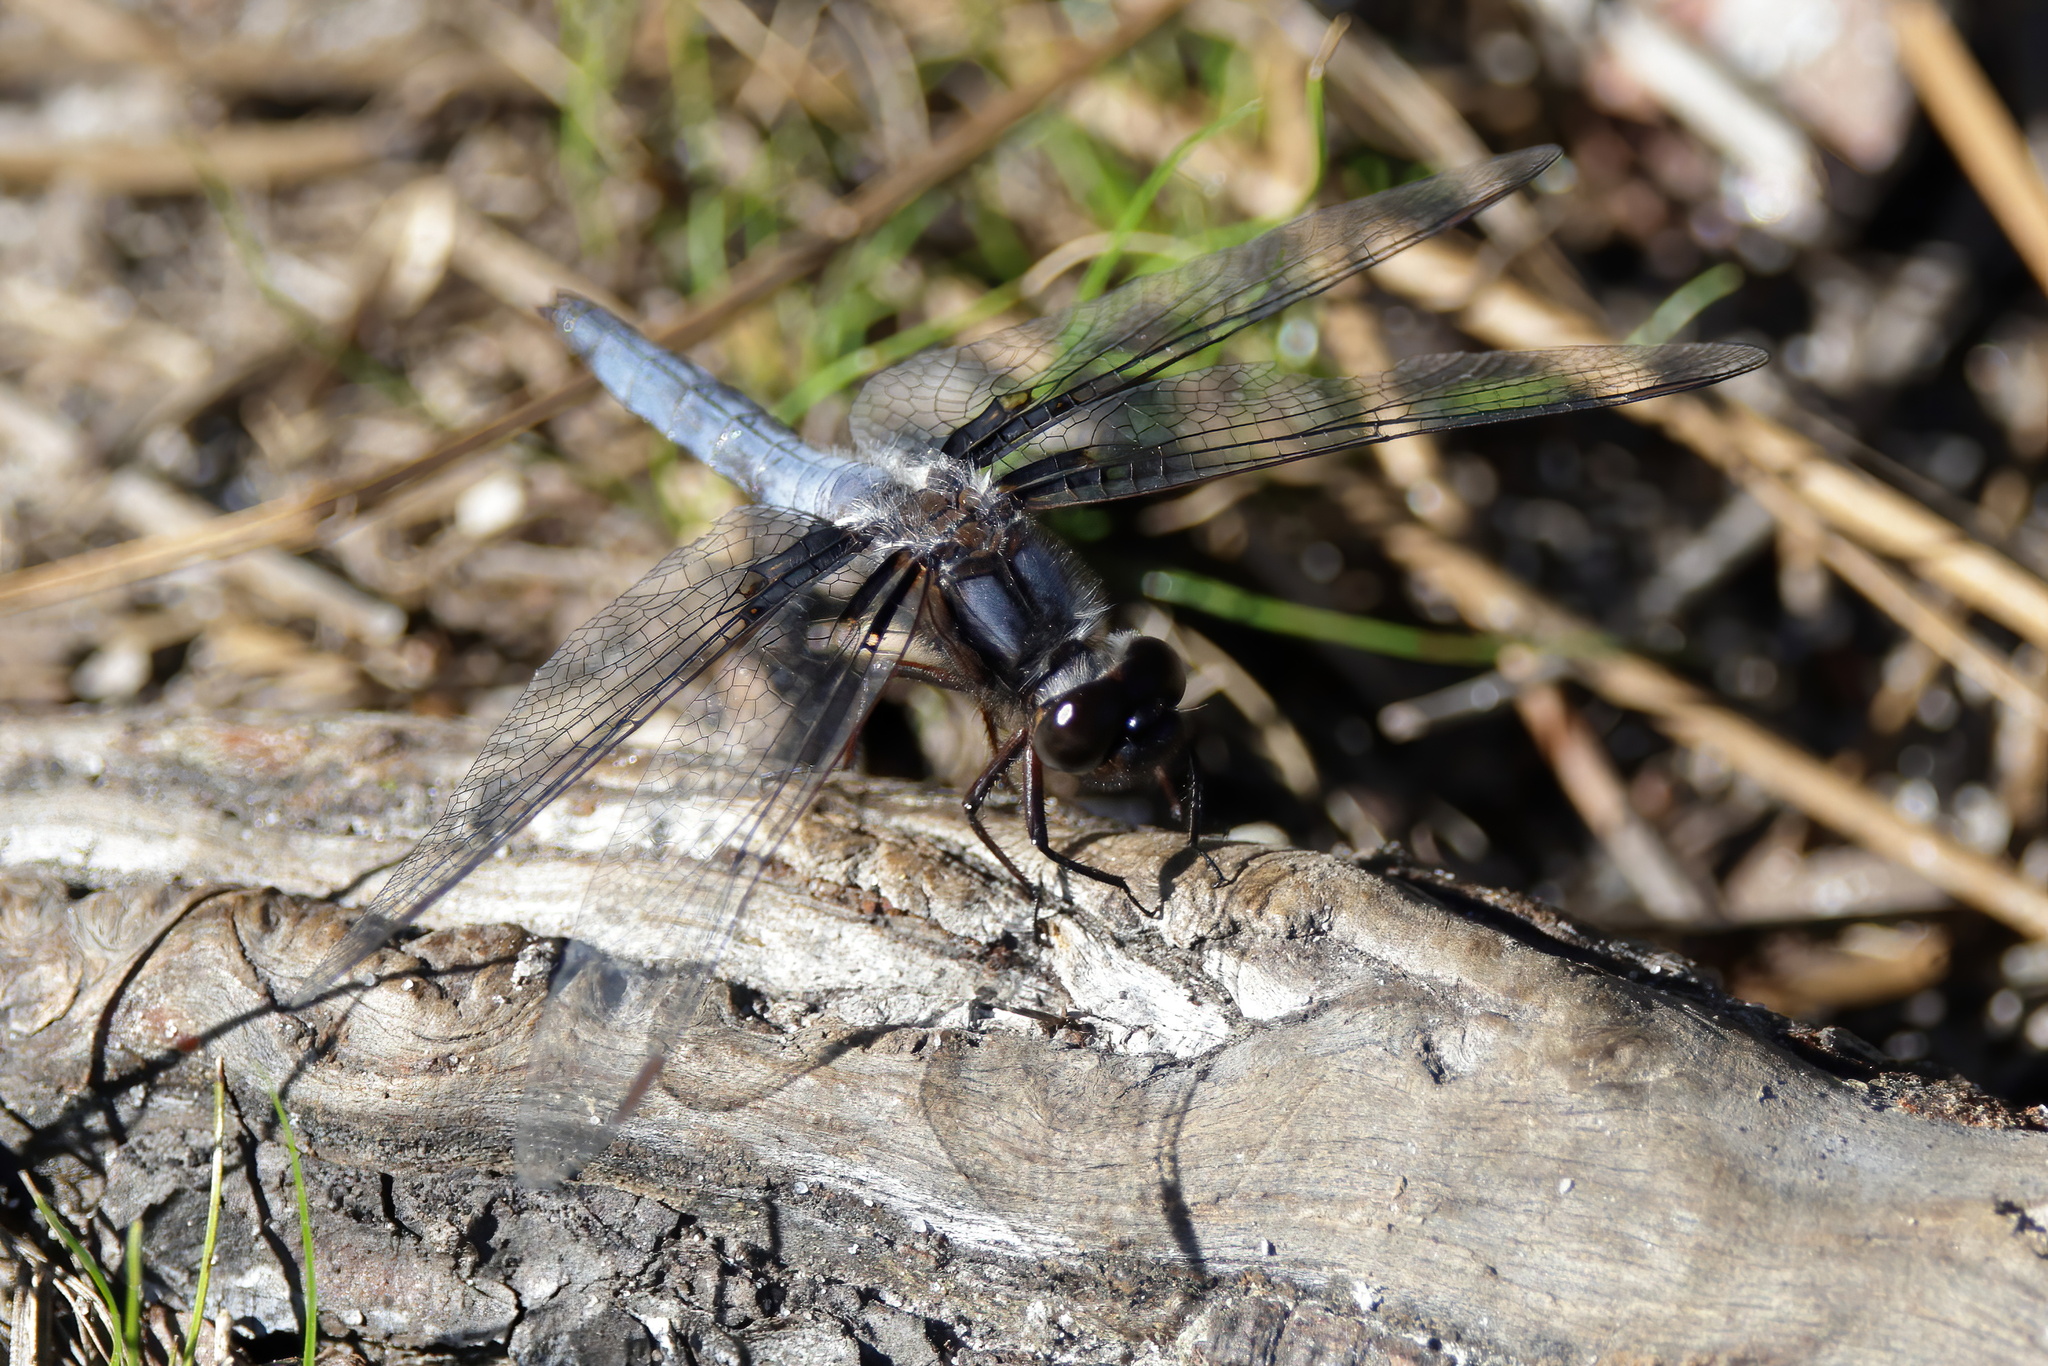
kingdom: Animalia
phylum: Arthropoda
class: Insecta
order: Odonata
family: Libellulidae
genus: Ladona
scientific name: Ladona deplanata
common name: Blue corporal
